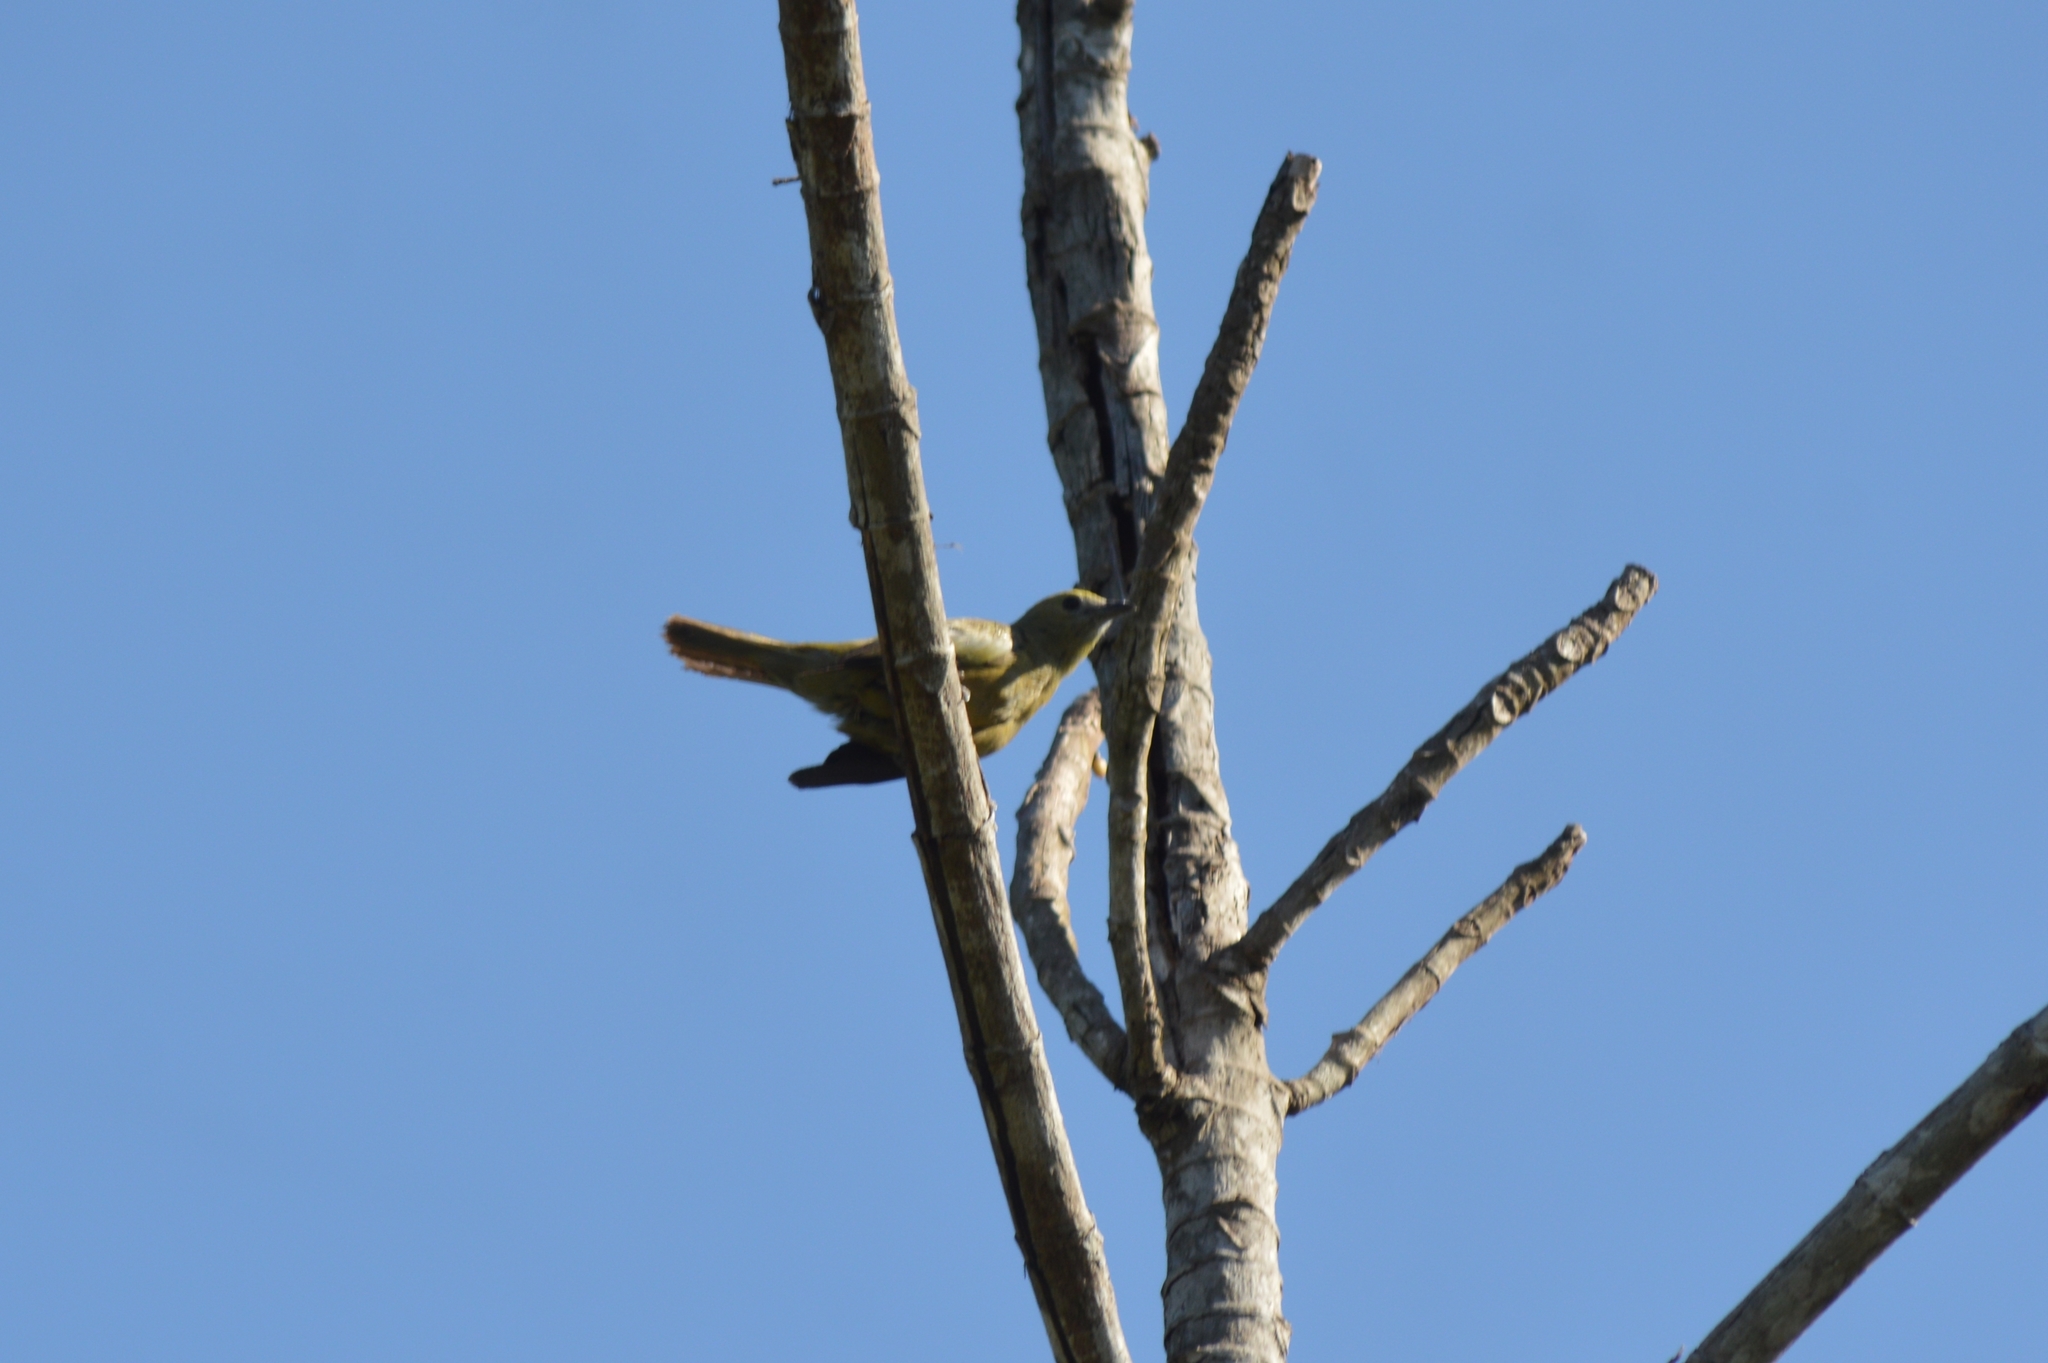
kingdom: Animalia
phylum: Chordata
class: Aves
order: Passeriformes
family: Thraupidae
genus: Thraupis
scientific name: Thraupis palmarum
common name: Palm tanager
